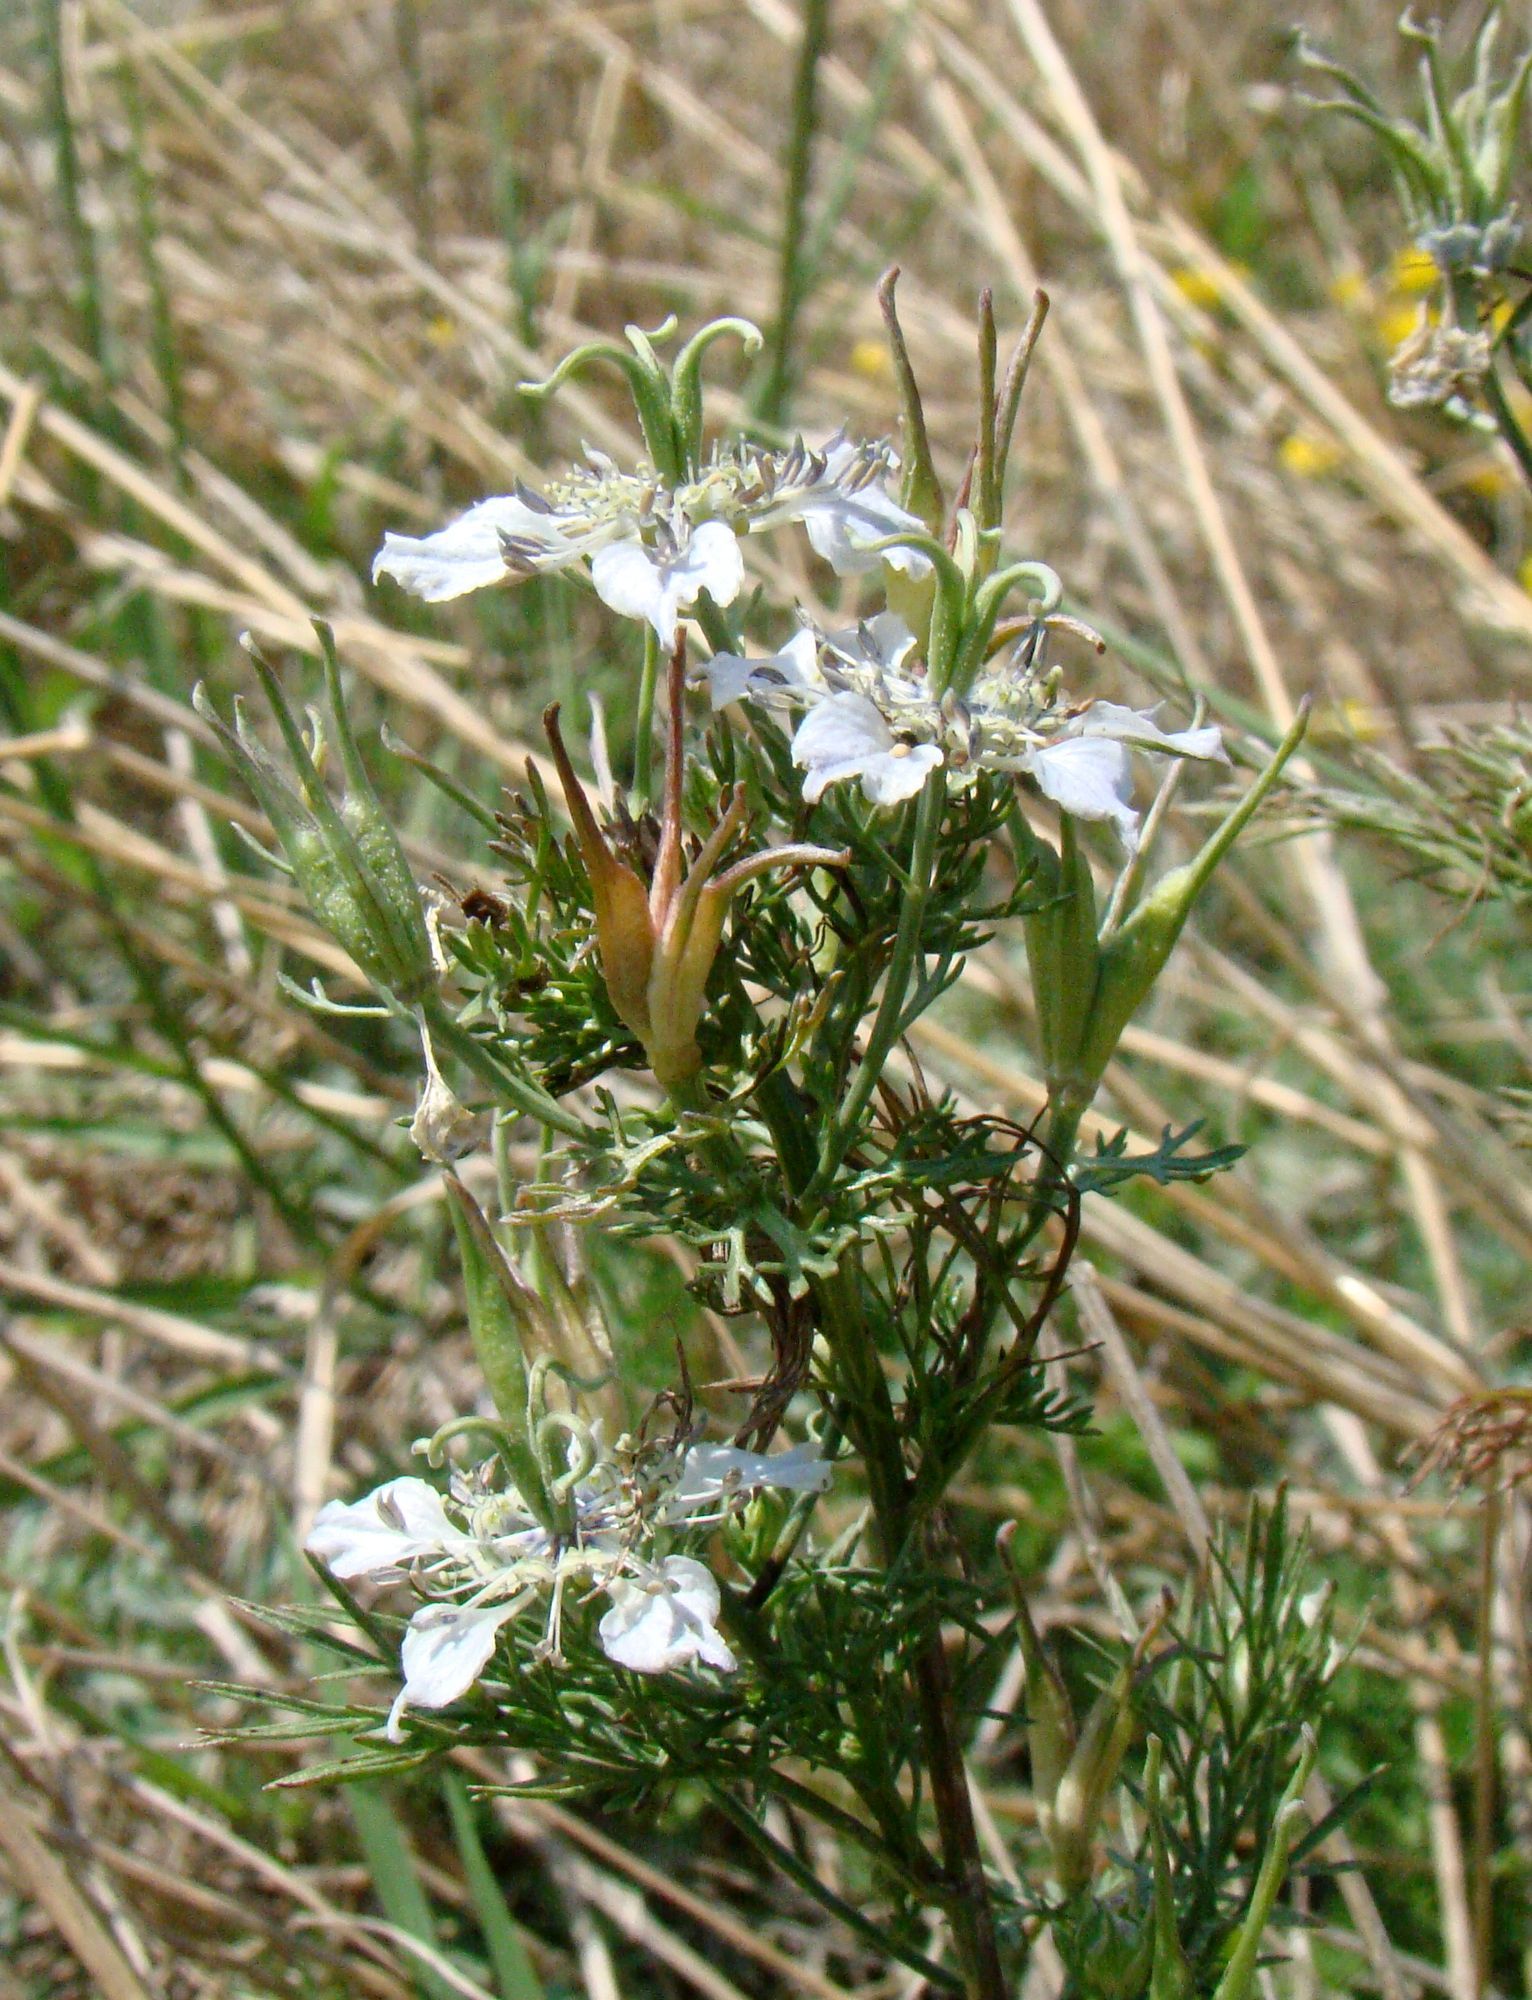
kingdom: Plantae
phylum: Tracheophyta
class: Magnoliopsida
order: Ranunculales
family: Ranunculaceae
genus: Nigella
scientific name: Nigella arvensis
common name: Wild fennel-flower
